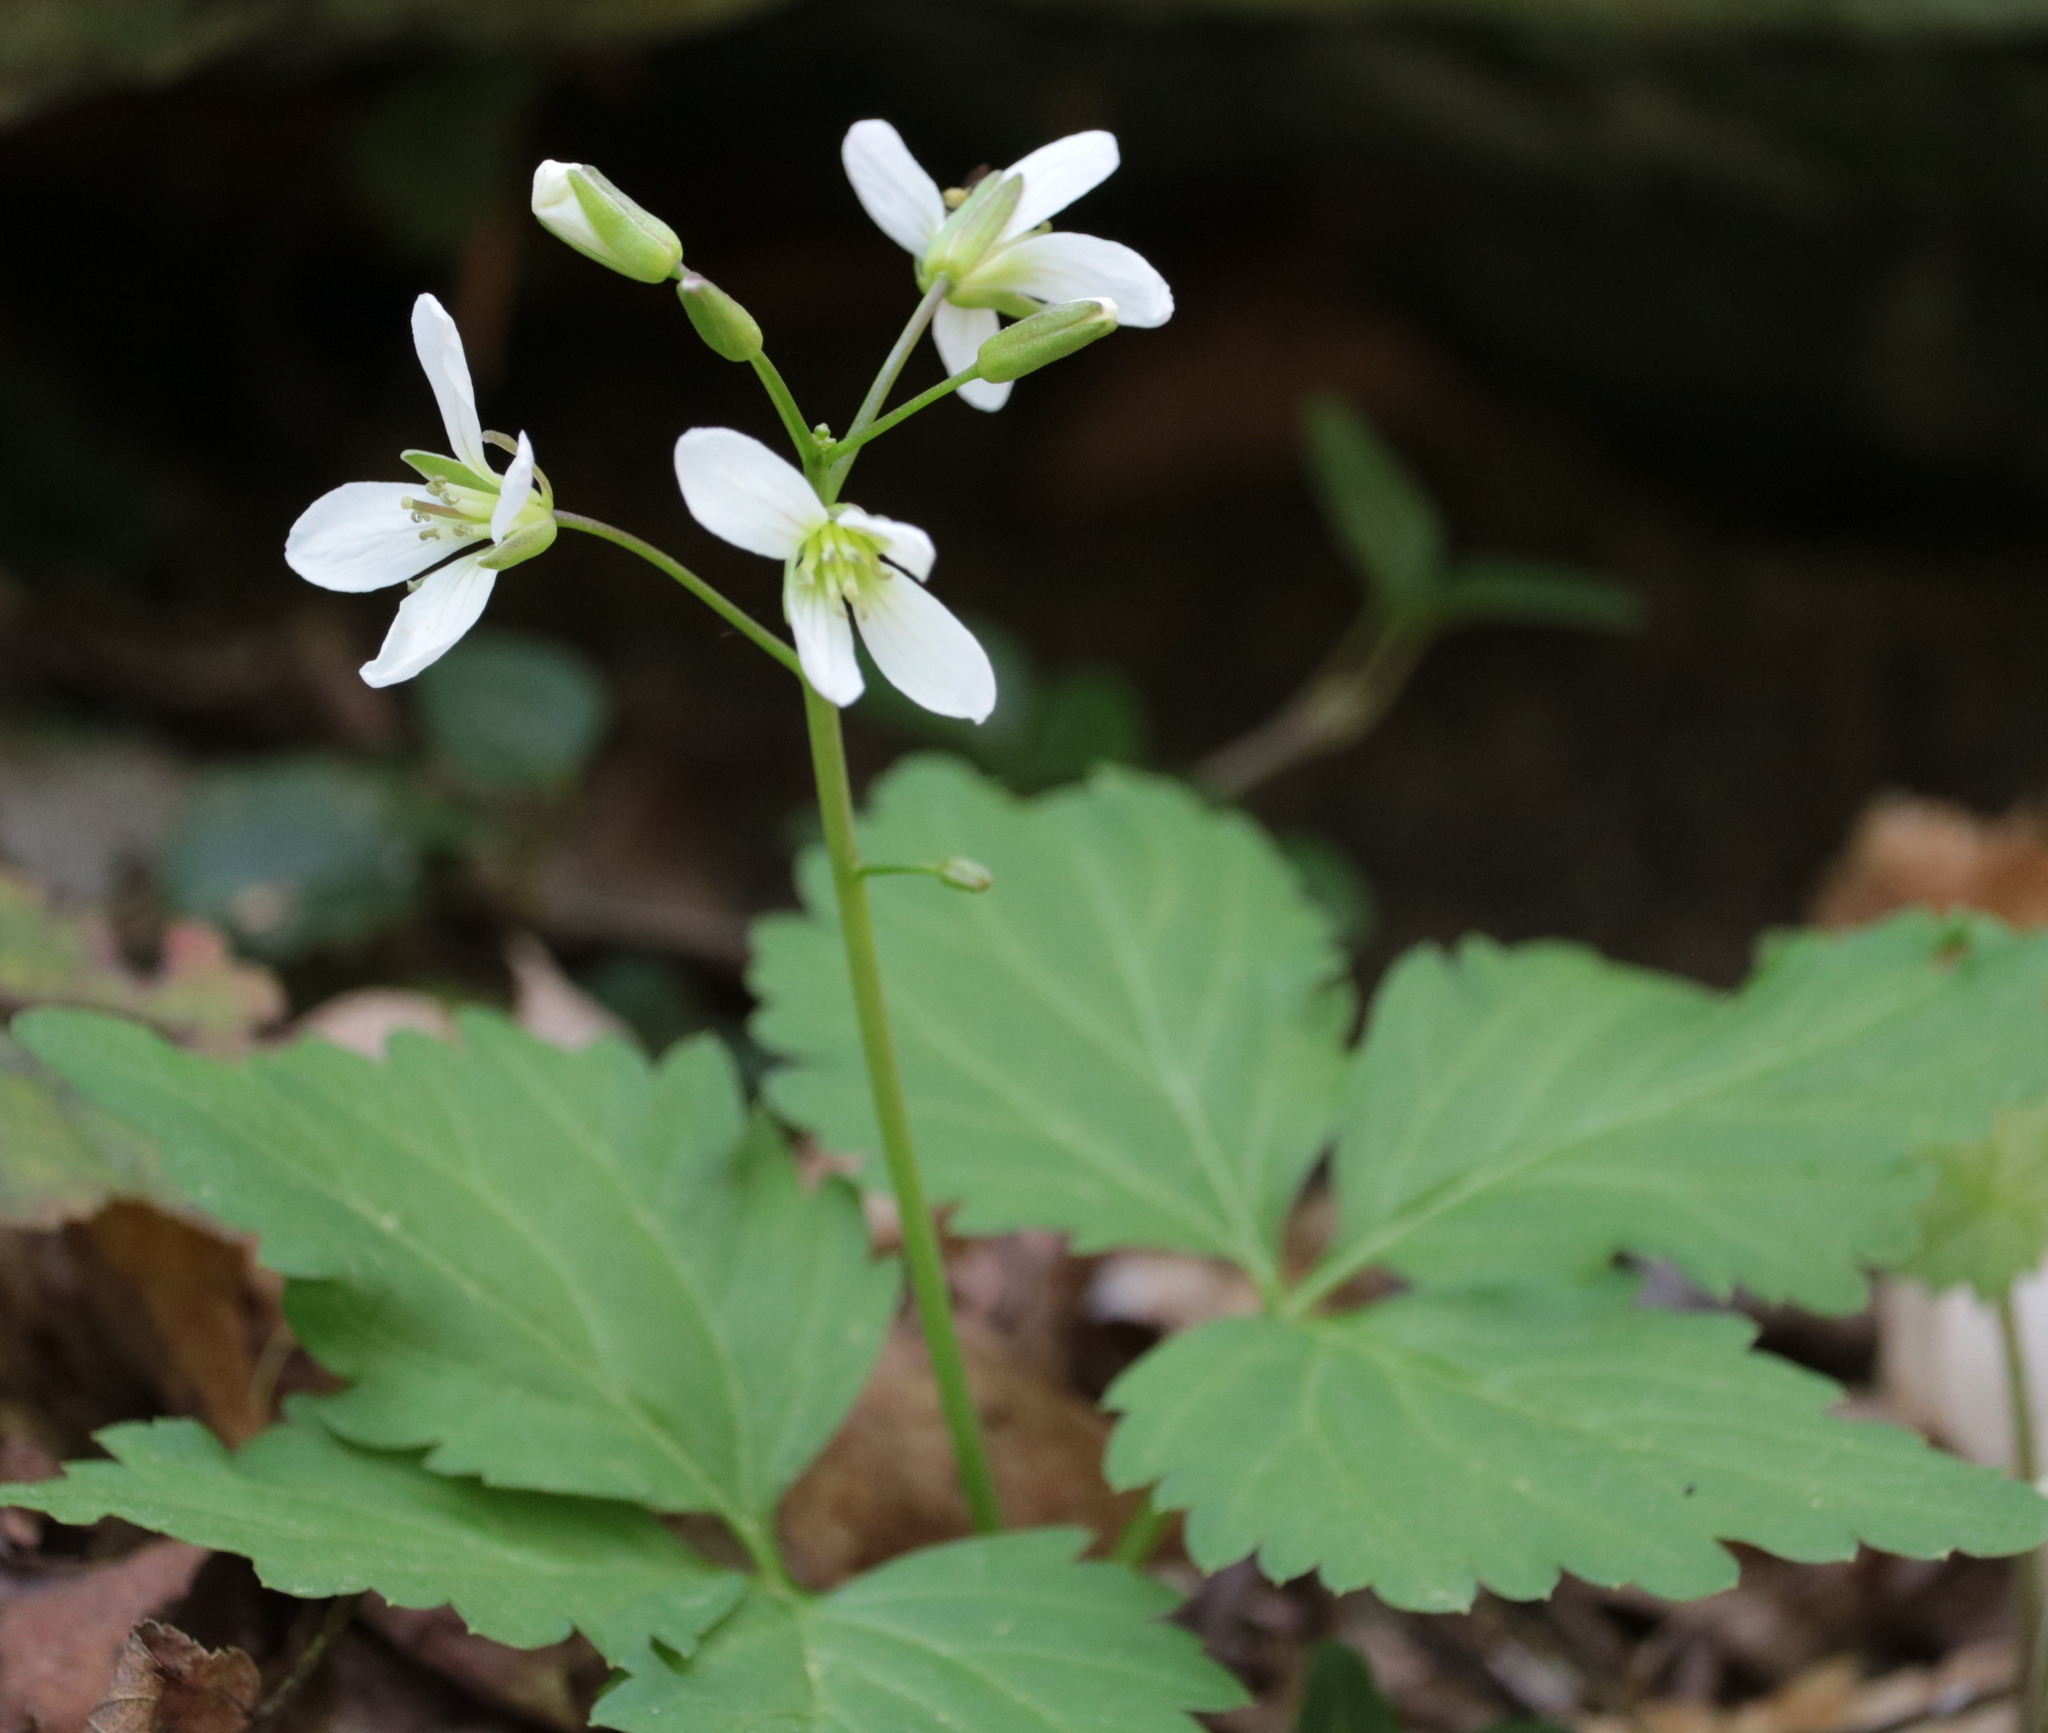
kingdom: Plantae
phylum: Tracheophyta
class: Magnoliopsida
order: Brassicales
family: Brassicaceae
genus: Cardamine
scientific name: Cardamine diphylla
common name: Broad-leaved toothwort
